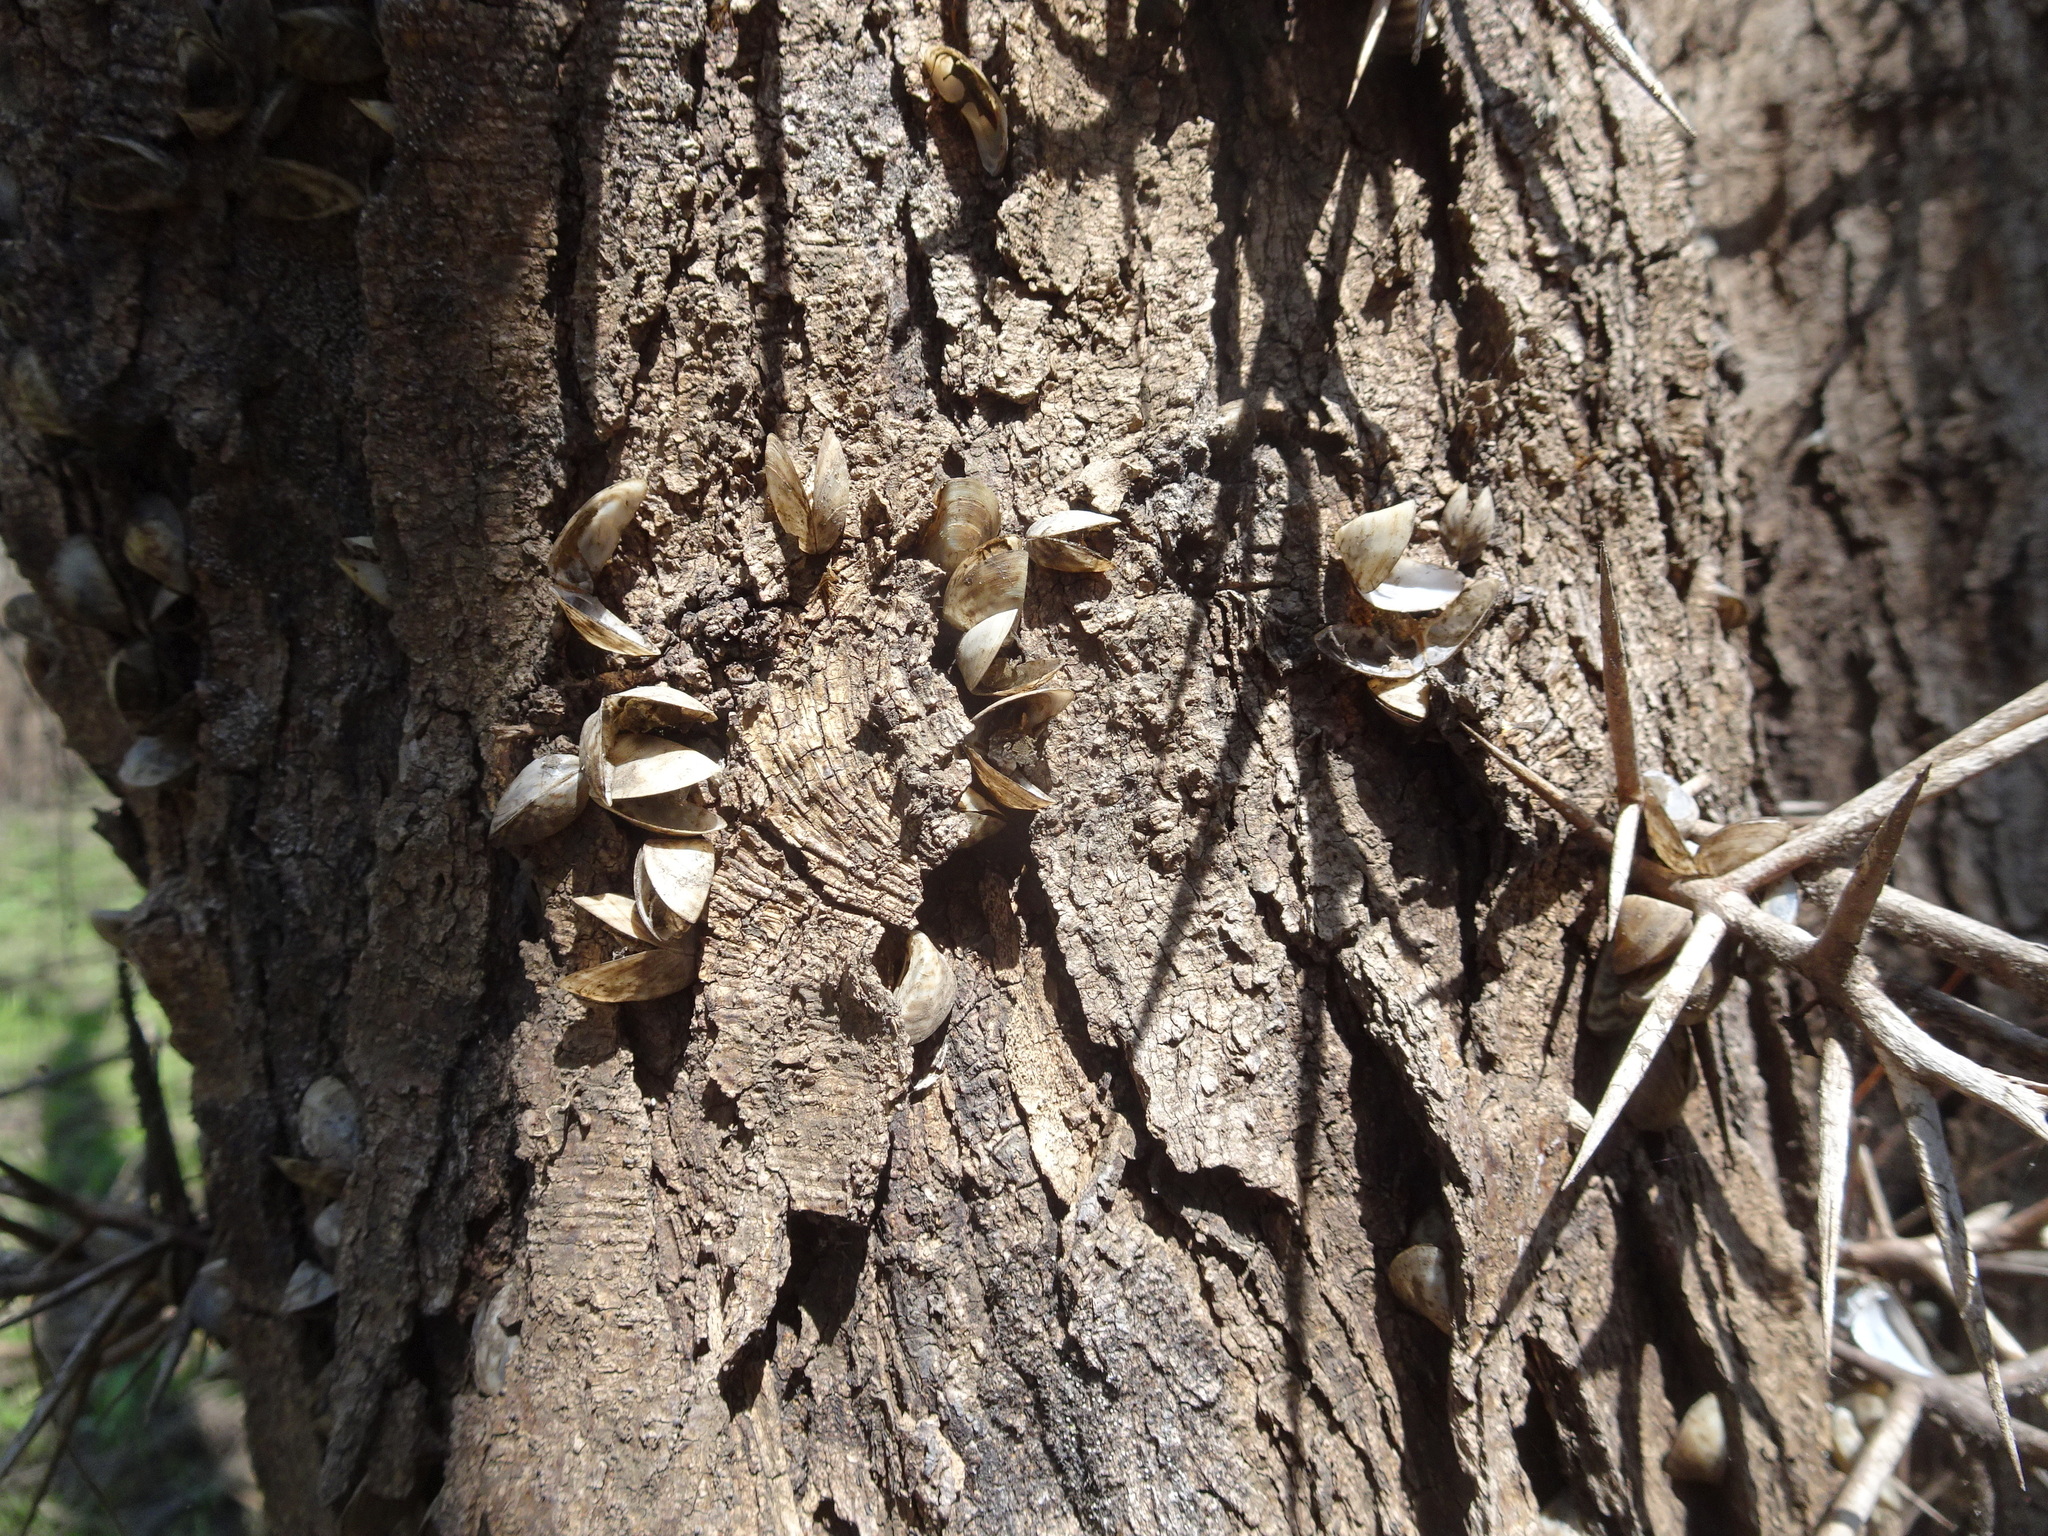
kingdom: Animalia
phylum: Mollusca
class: Bivalvia
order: Myida
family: Dreissenidae
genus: Dreissena
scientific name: Dreissena polymorpha
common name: Zebra mussel
